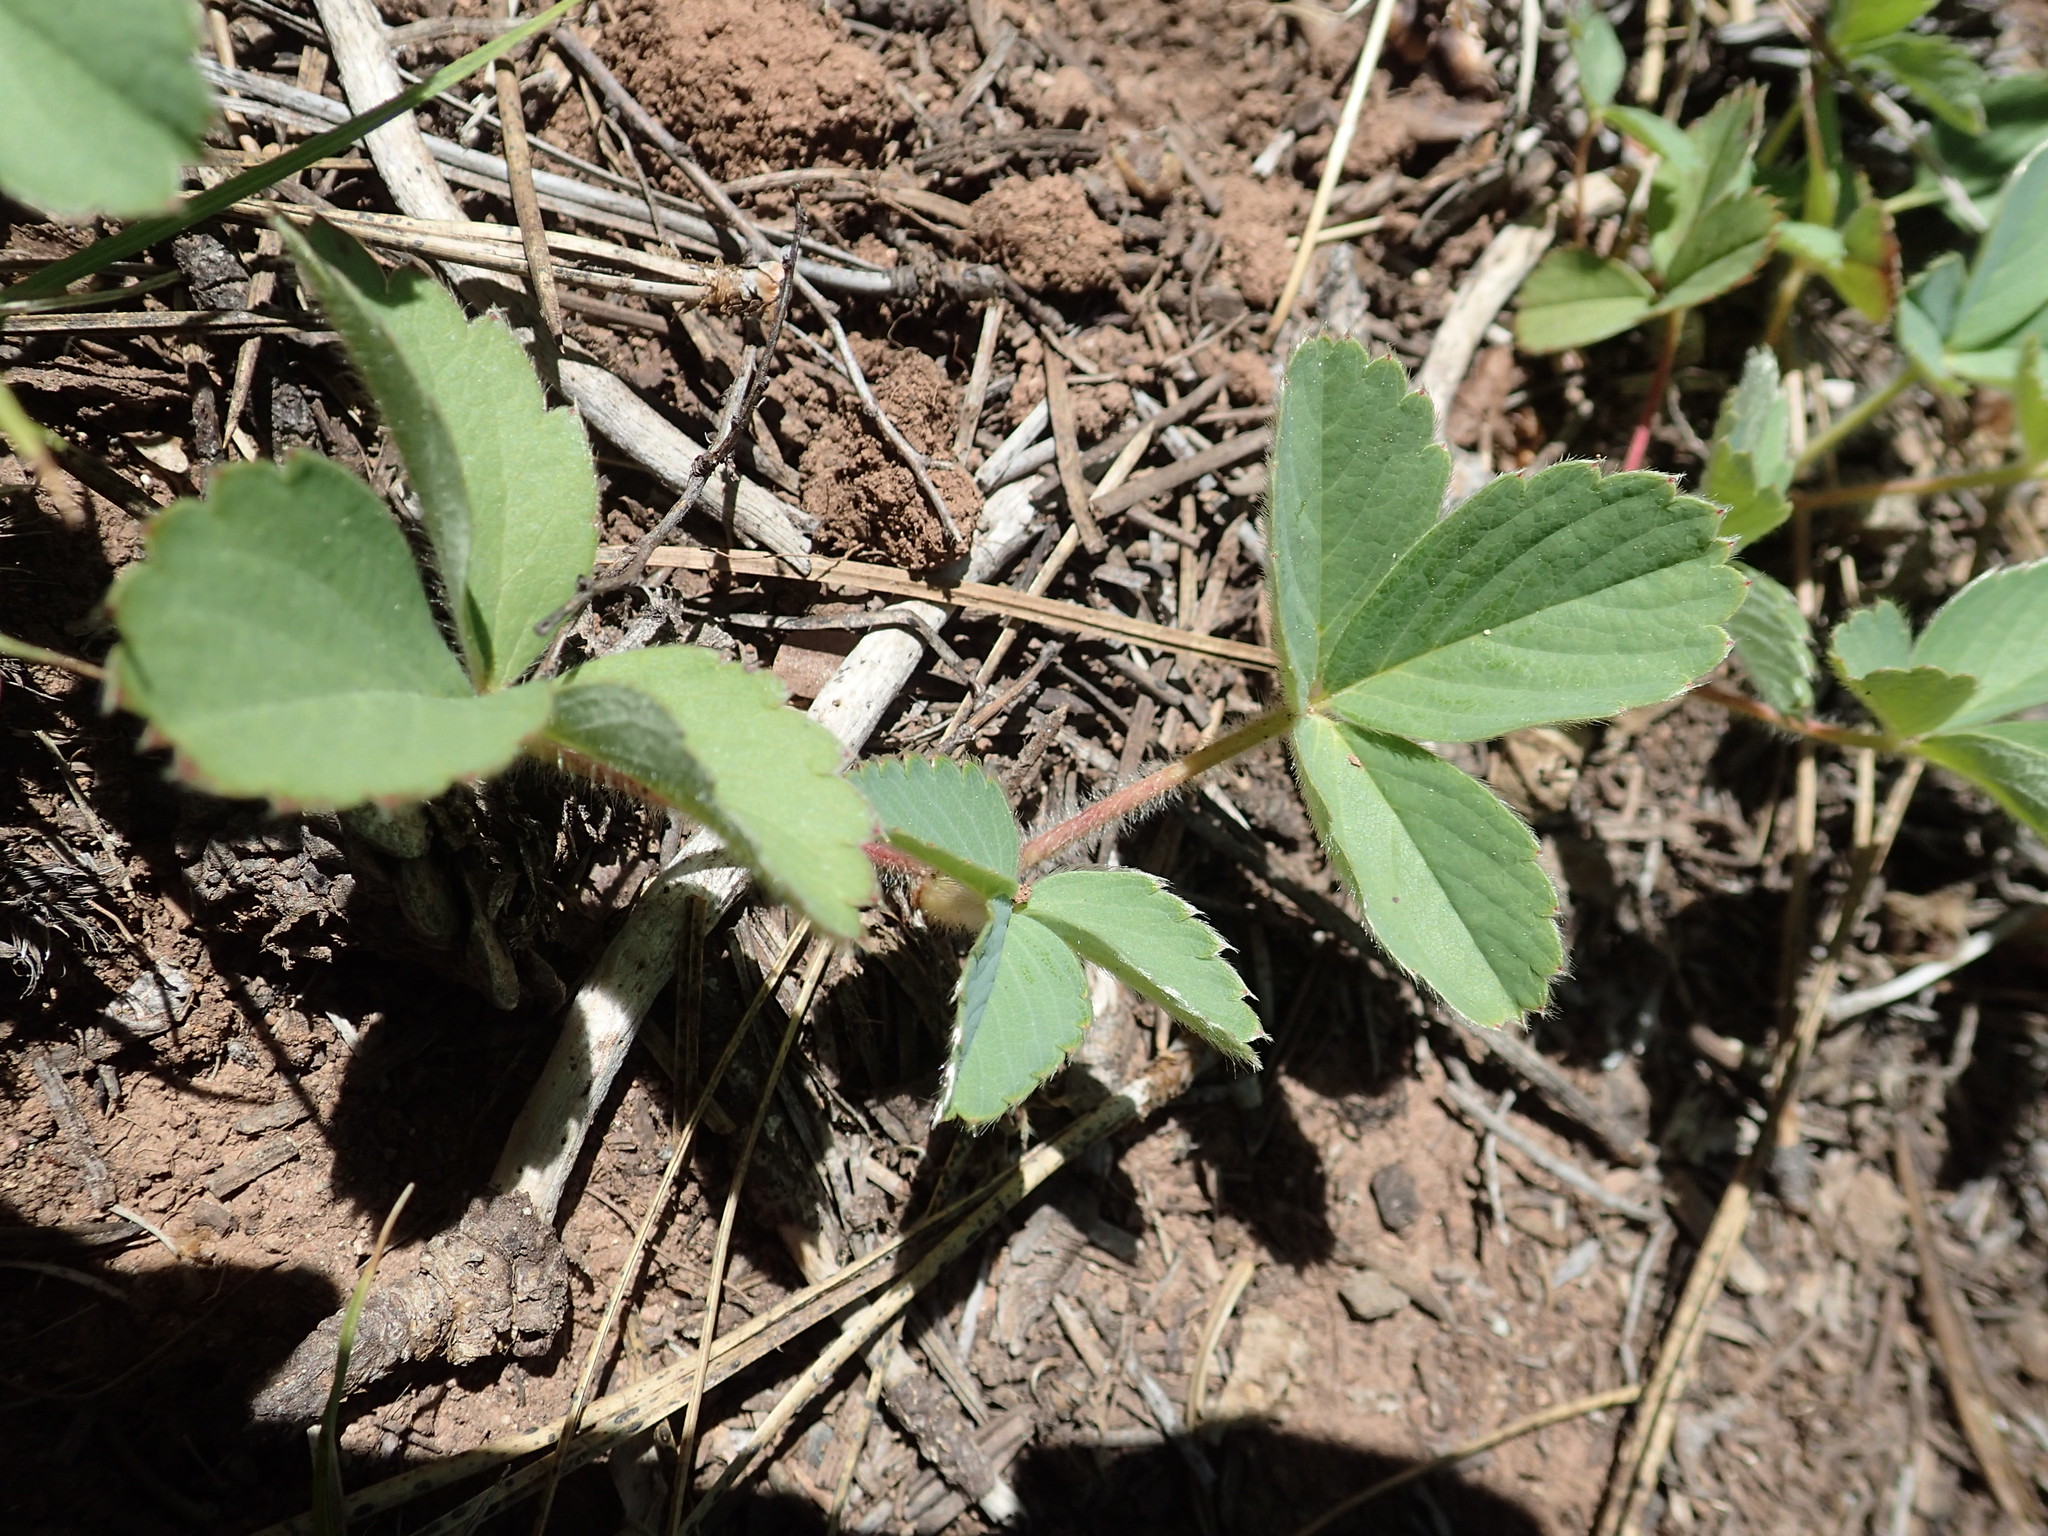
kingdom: Plantae
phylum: Tracheophyta
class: Magnoliopsida
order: Rosales
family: Rosaceae
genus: Fragaria
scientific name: Fragaria virginiana
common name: Thickleaved wild strawberry
